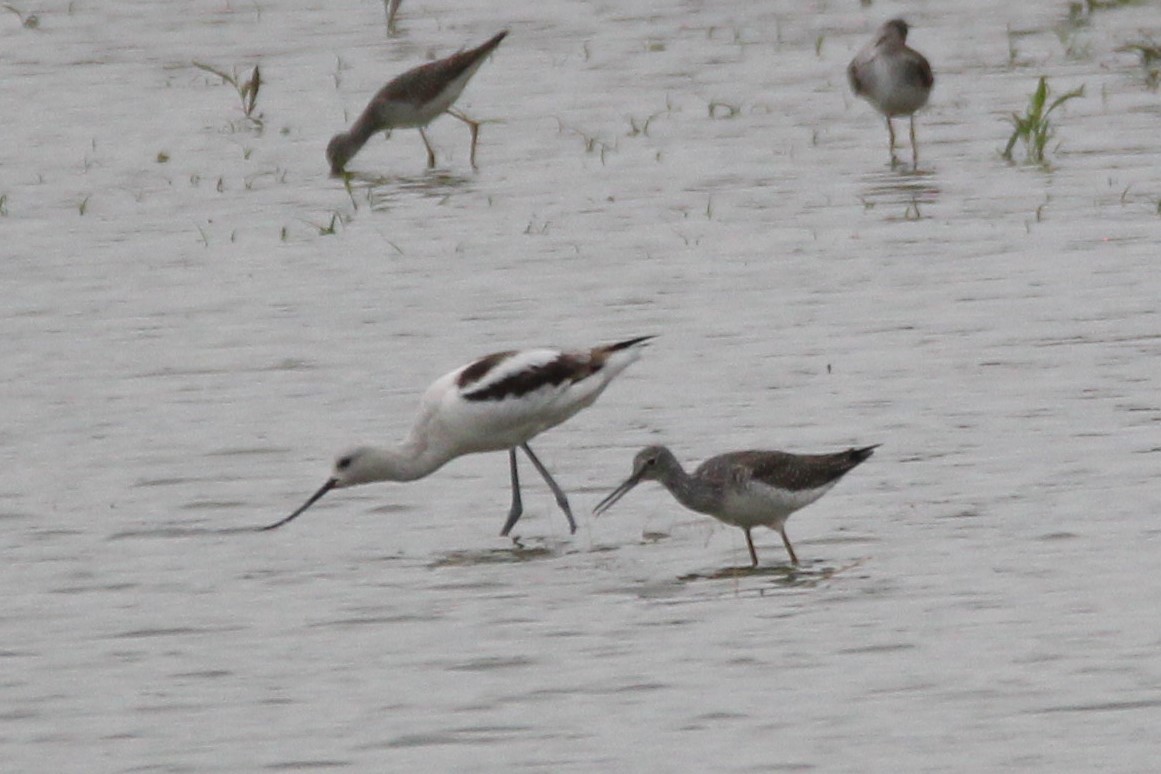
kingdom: Animalia
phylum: Chordata
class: Aves
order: Charadriiformes
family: Scolopacidae
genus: Tringa
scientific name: Tringa melanoleuca
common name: Greater yellowlegs
